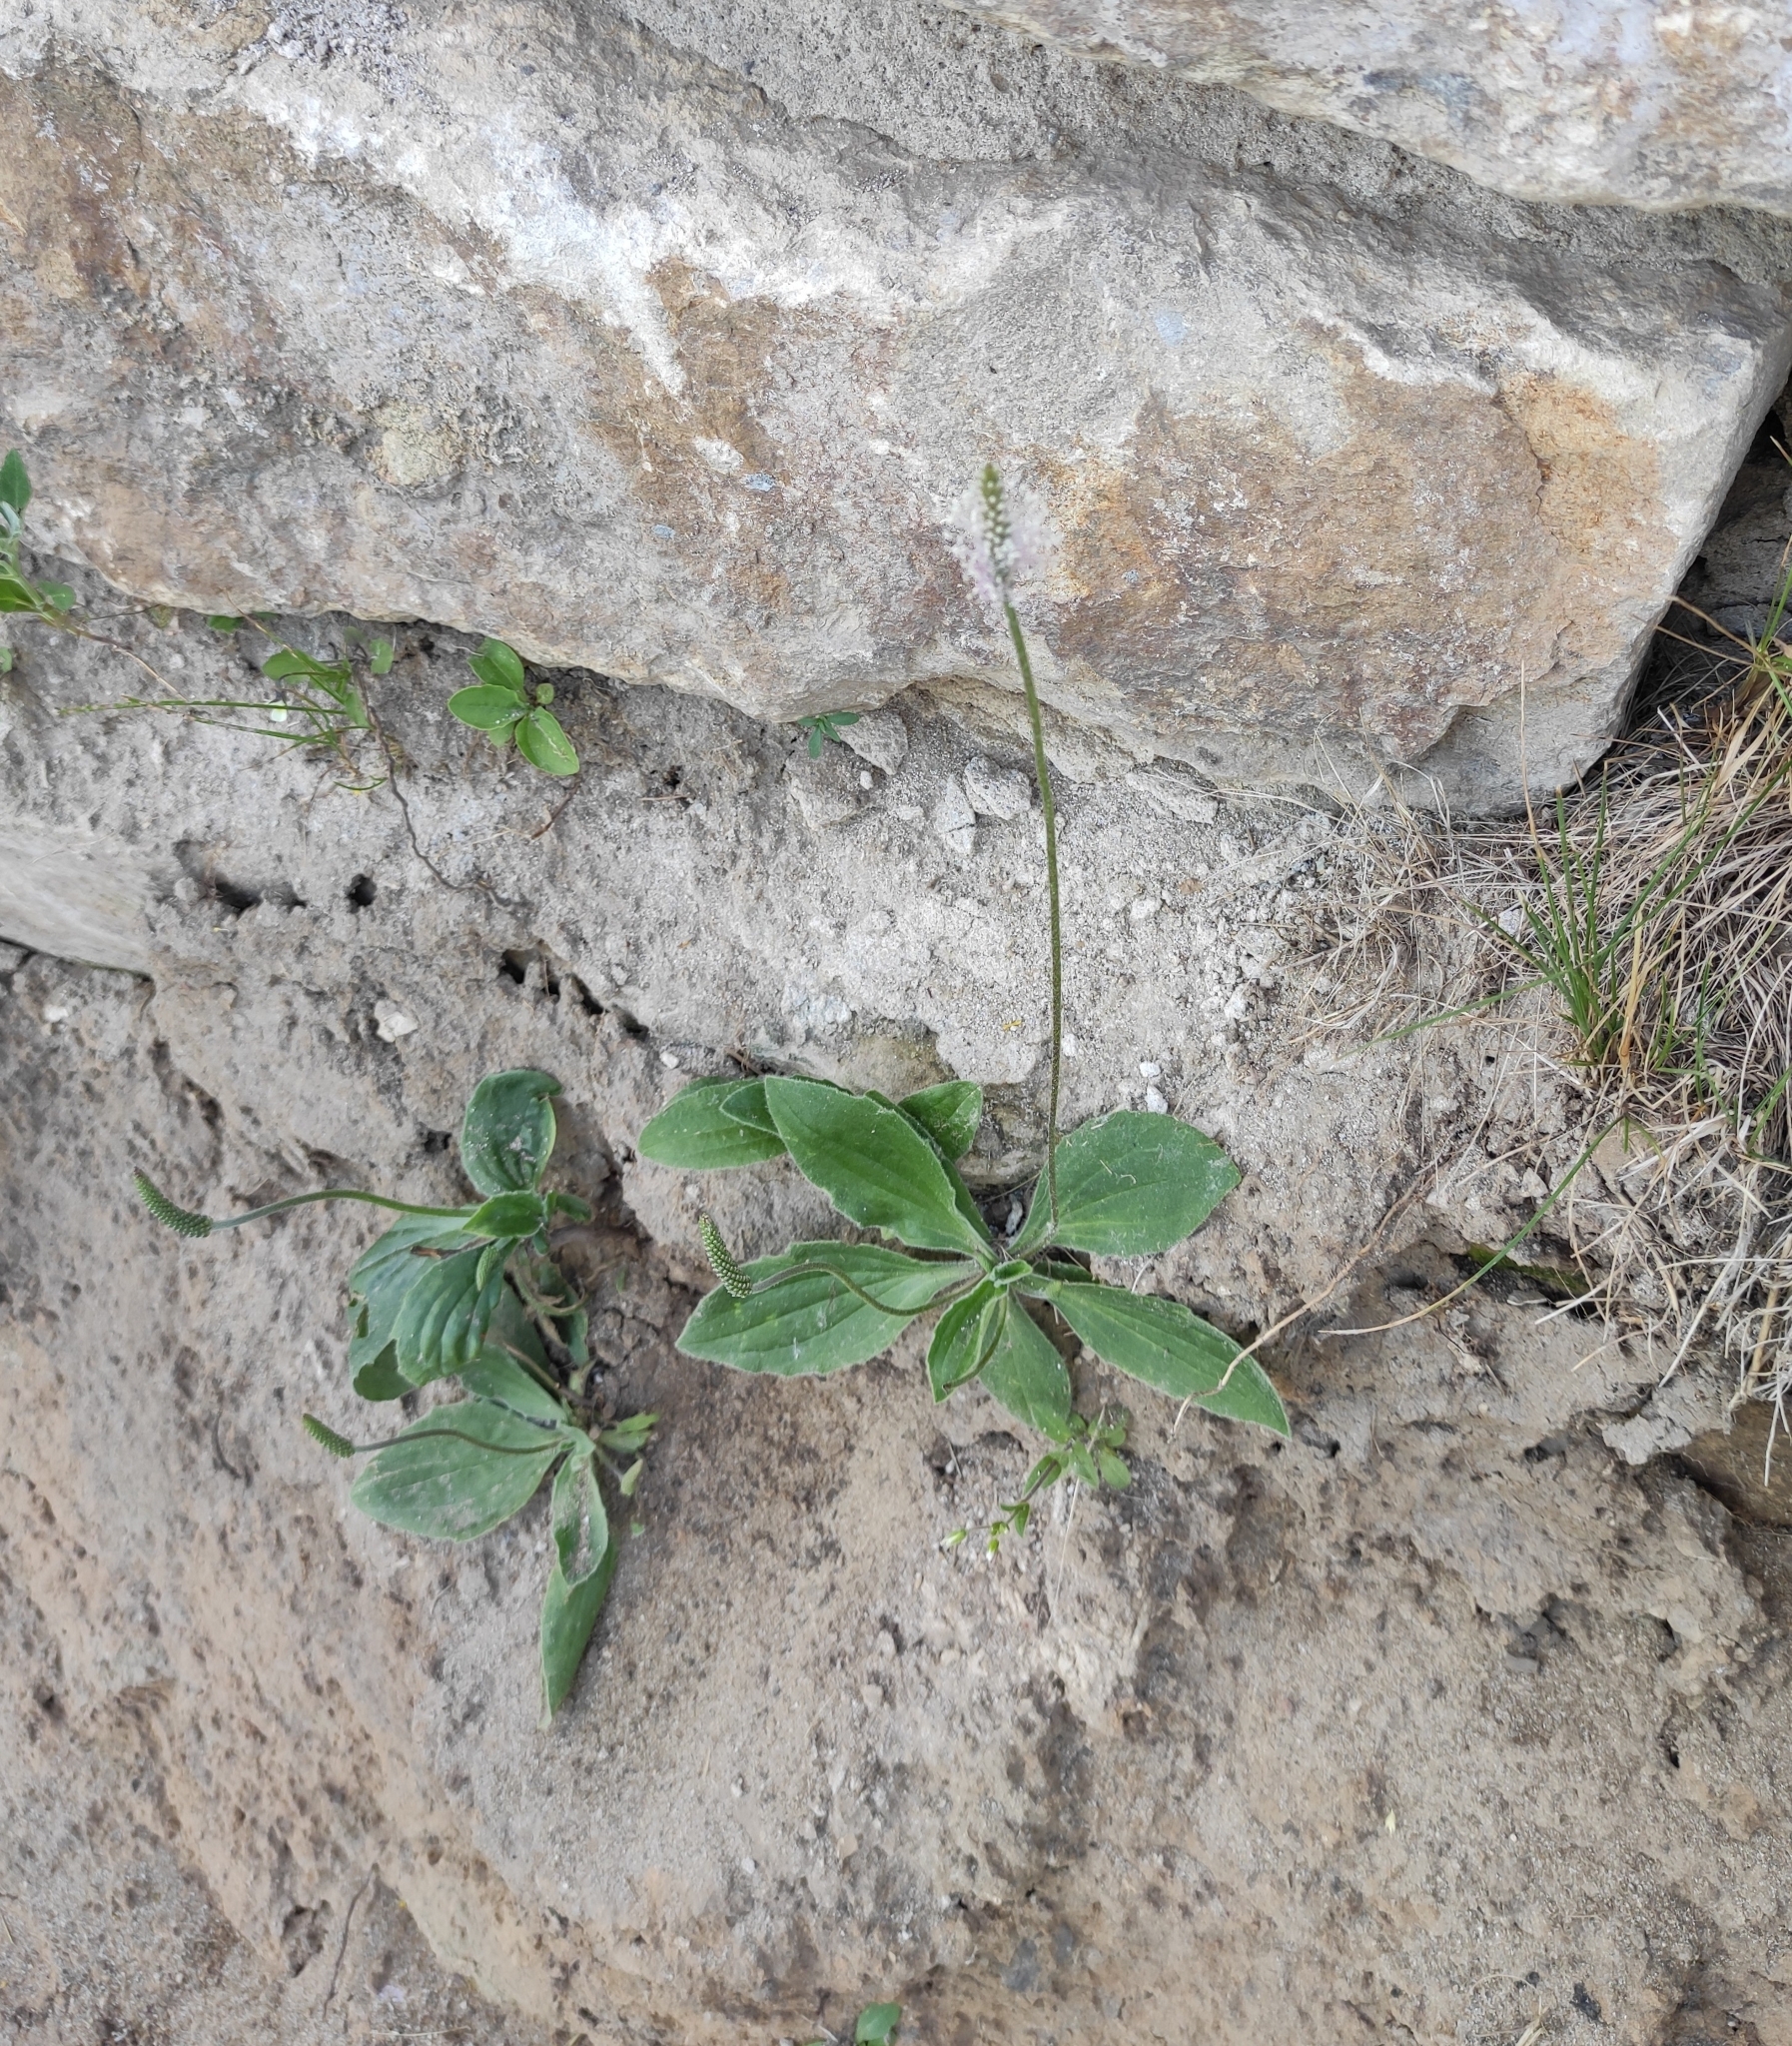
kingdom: Plantae
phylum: Tracheophyta
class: Magnoliopsida
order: Lamiales
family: Plantaginaceae
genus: Plantago
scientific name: Plantago media
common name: Hoary plantain
